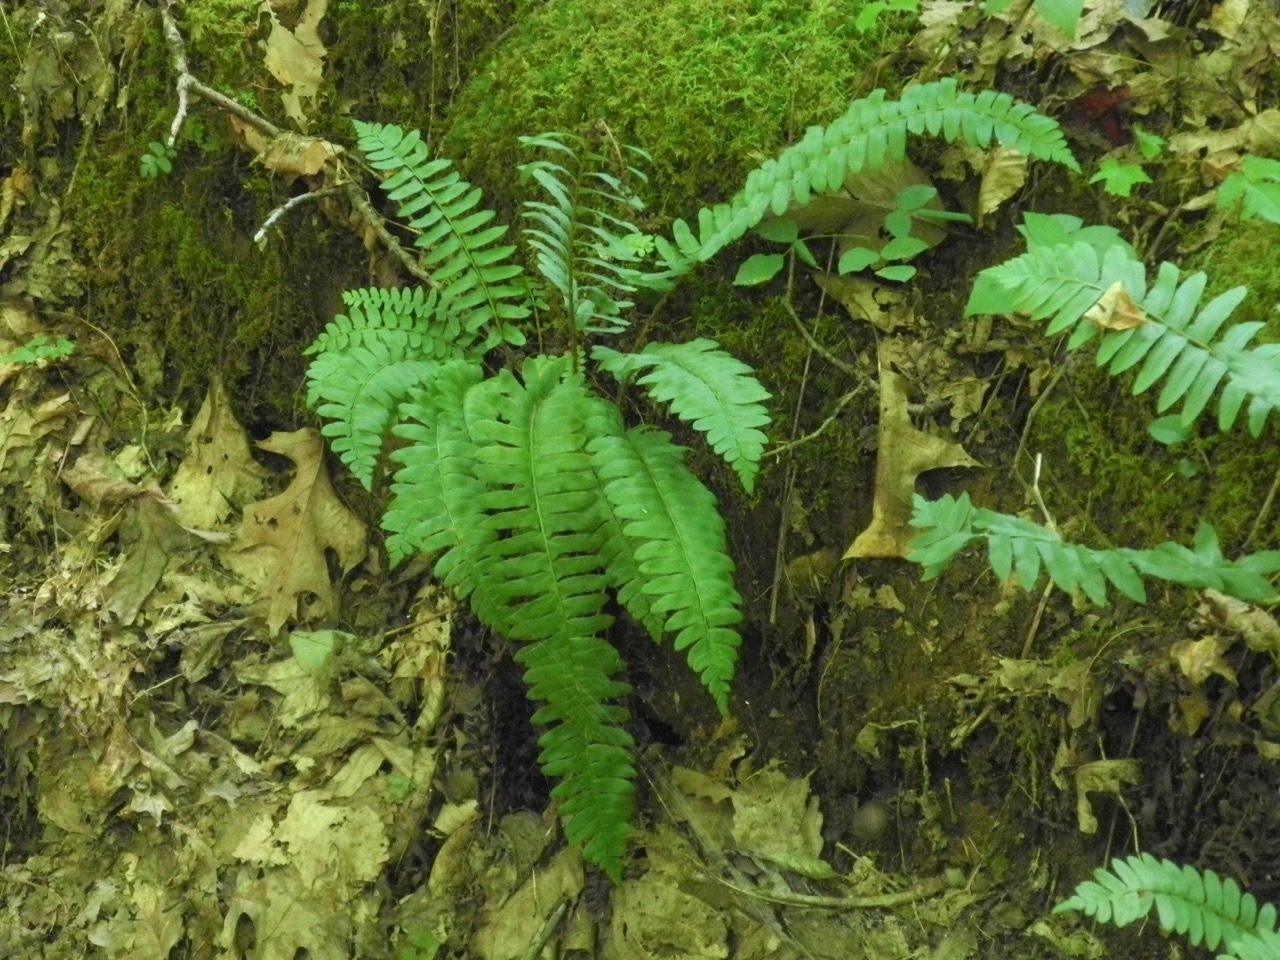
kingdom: Plantae
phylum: Tracheophyta
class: Polypodiopsida
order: Polypodiales
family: Dryopteridaceae
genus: Polystichum
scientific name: Polystichum acrostichoides
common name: Christmas fern
